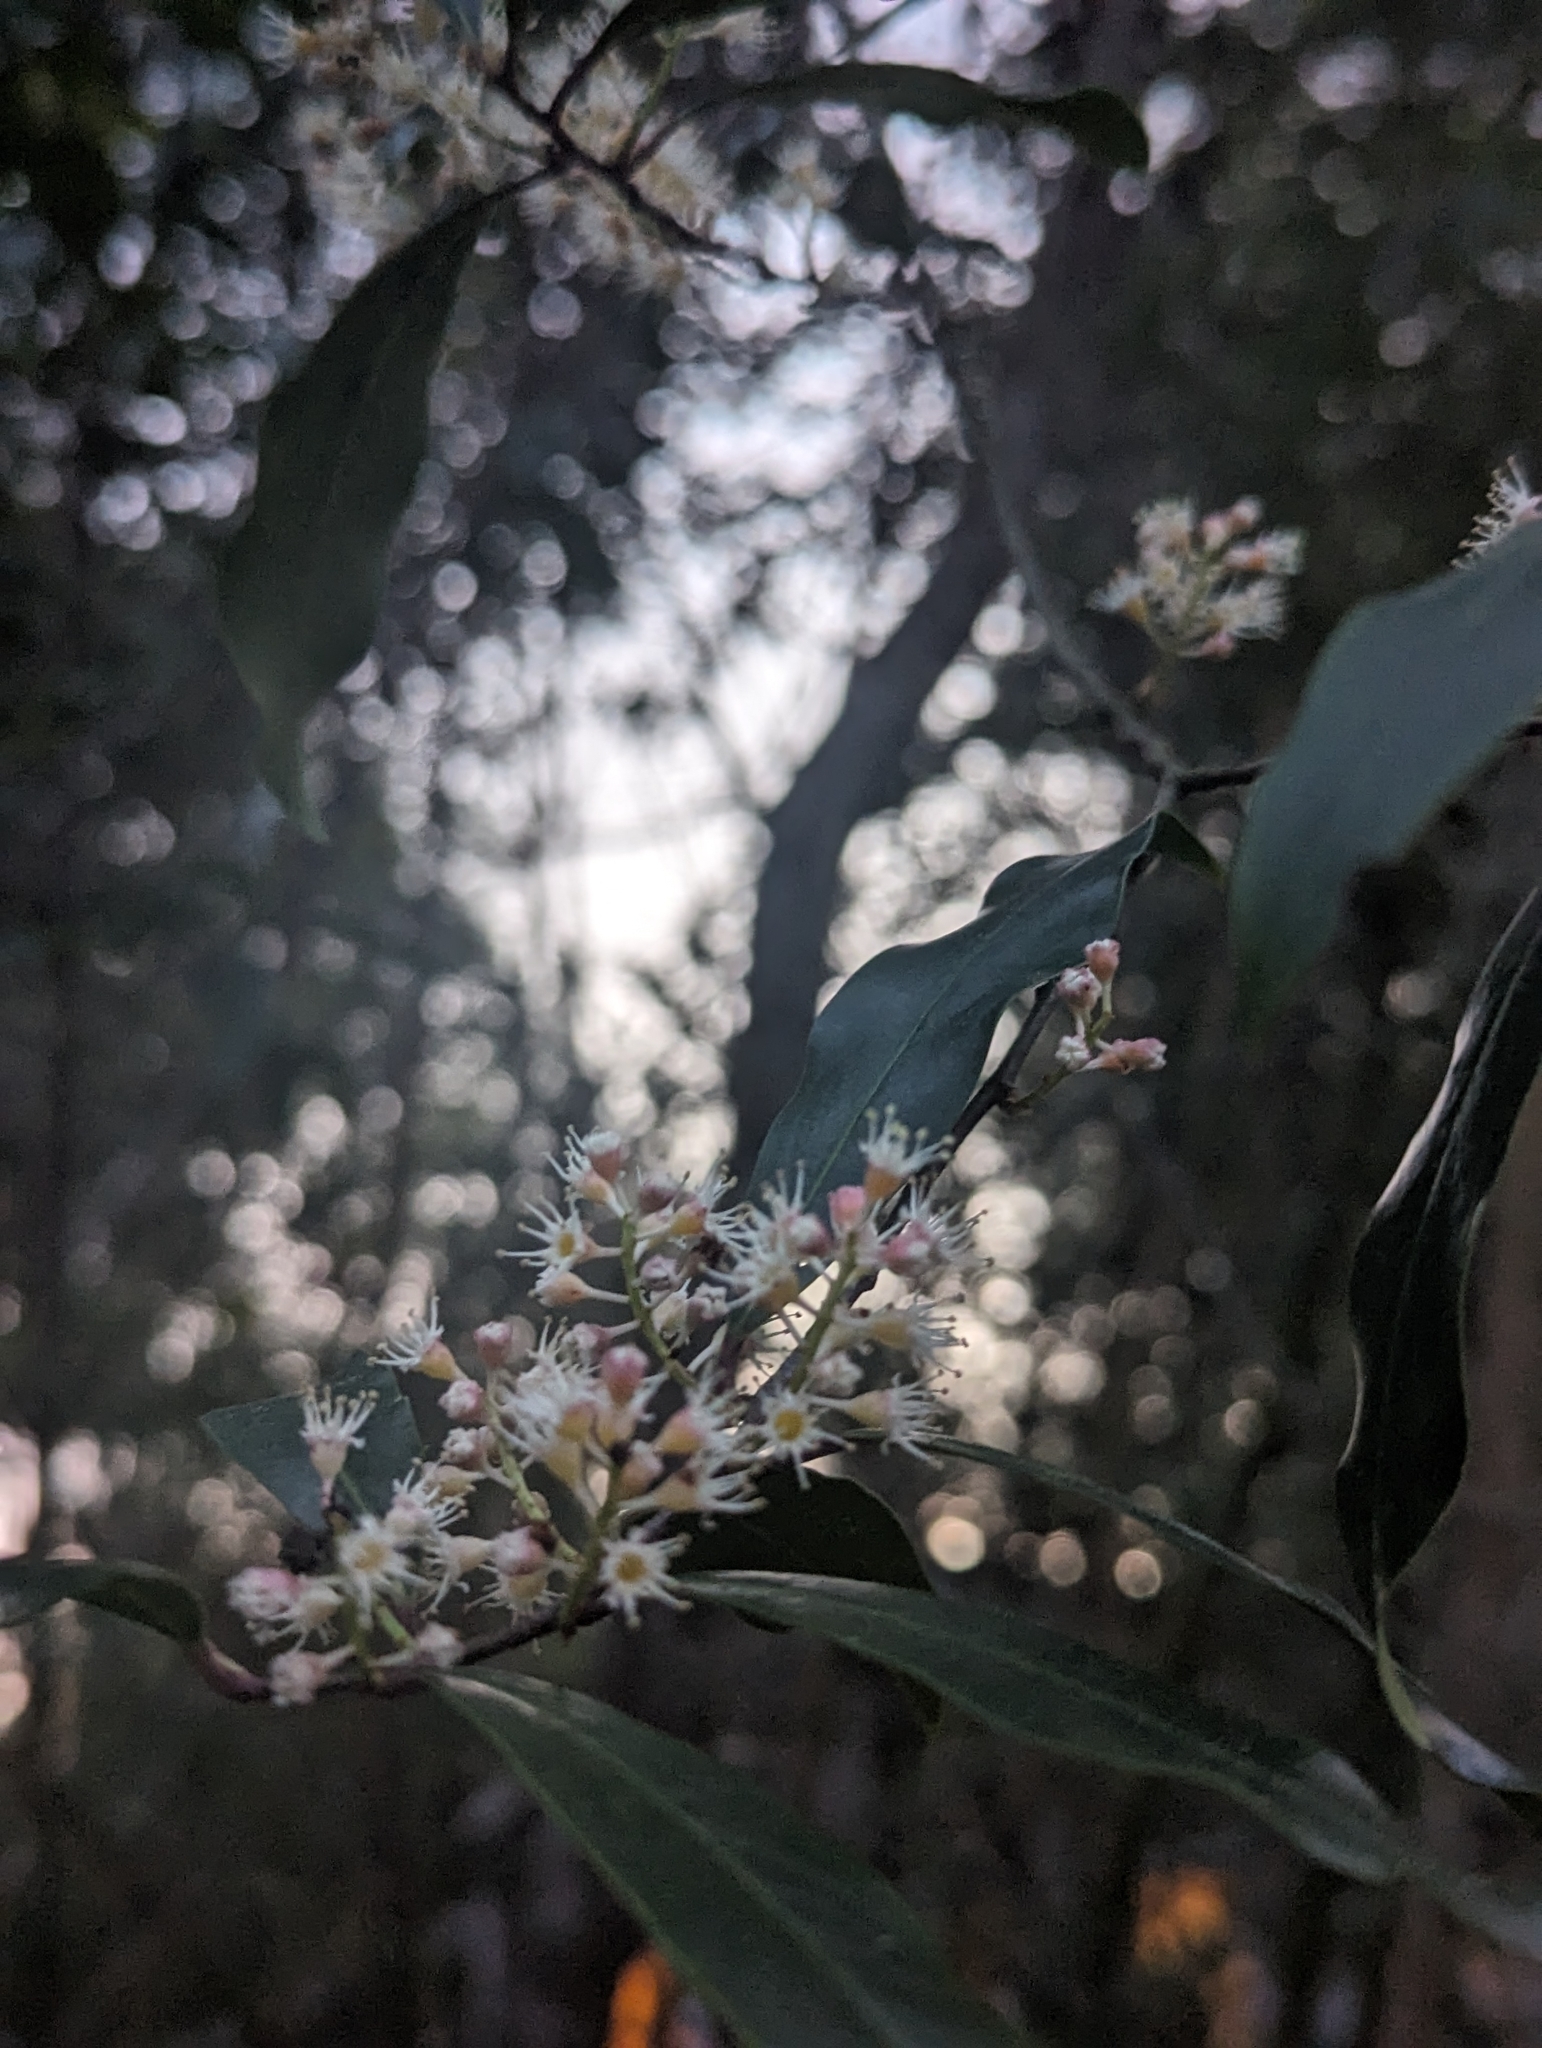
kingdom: Plantae
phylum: Tracheophyta
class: Magnoliopsida
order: Rosales
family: Rosaceae
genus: Prunus
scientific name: Prunus caroliniana
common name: Carolina laurel cherry
